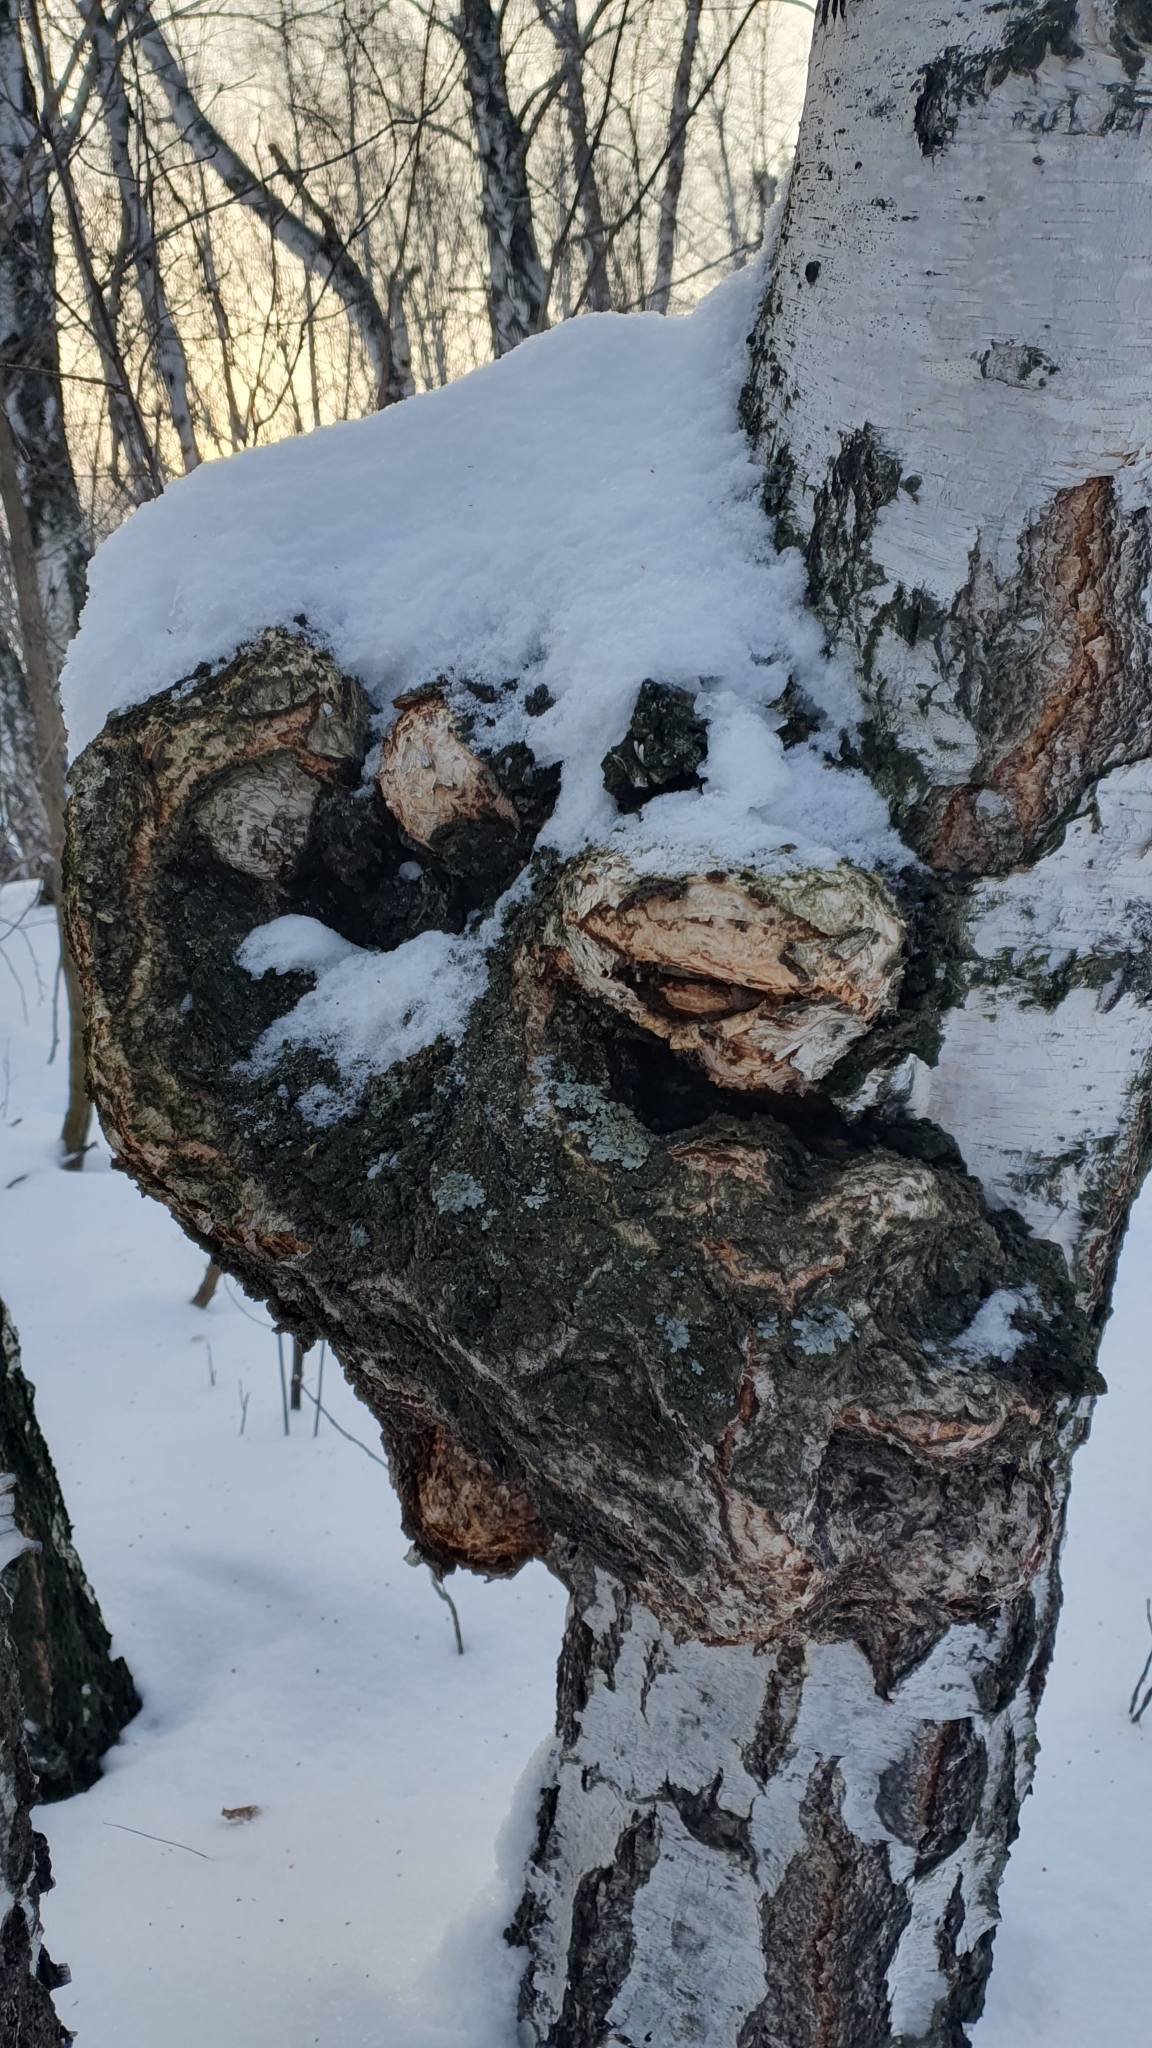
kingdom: Bacteria
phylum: Proteobacteria
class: Alphaproteobacteria
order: Rhizobiales
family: Rhizobiaceae
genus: Rhizobium
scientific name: Rhizobium Agrobacterium radiobacter
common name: Bacterial crown gall
